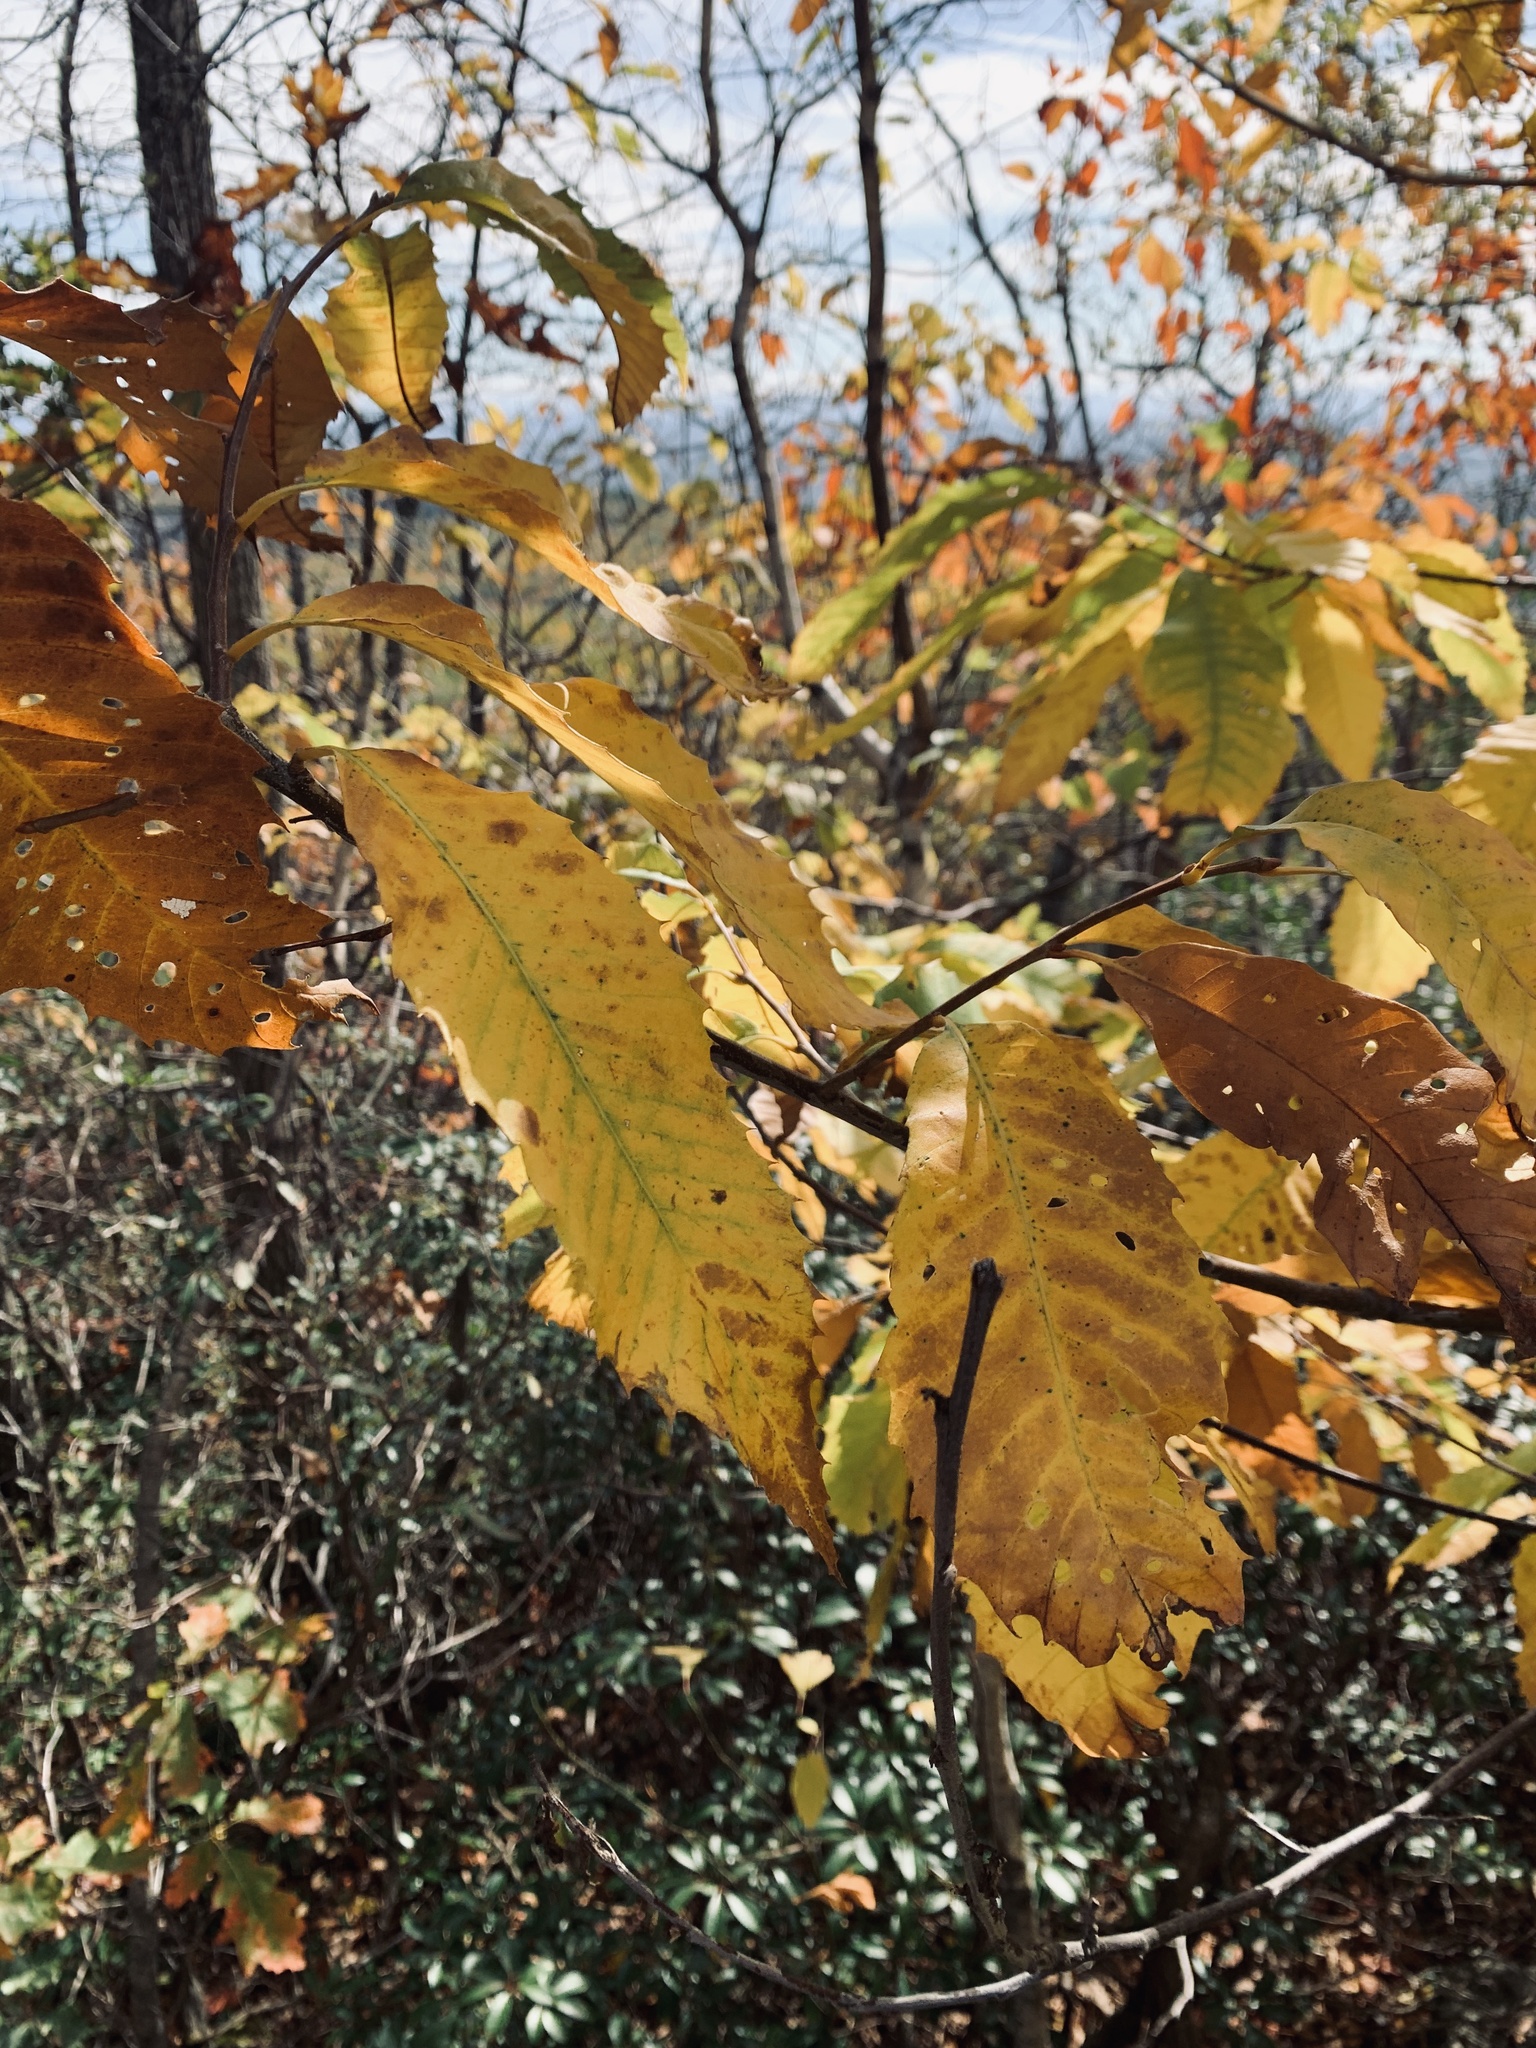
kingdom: Plantae
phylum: Tracheophyta
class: Magnoliopsida
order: Fagales
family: Fagaceae
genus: Castanea
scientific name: Castanea dentata
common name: American chestnut
